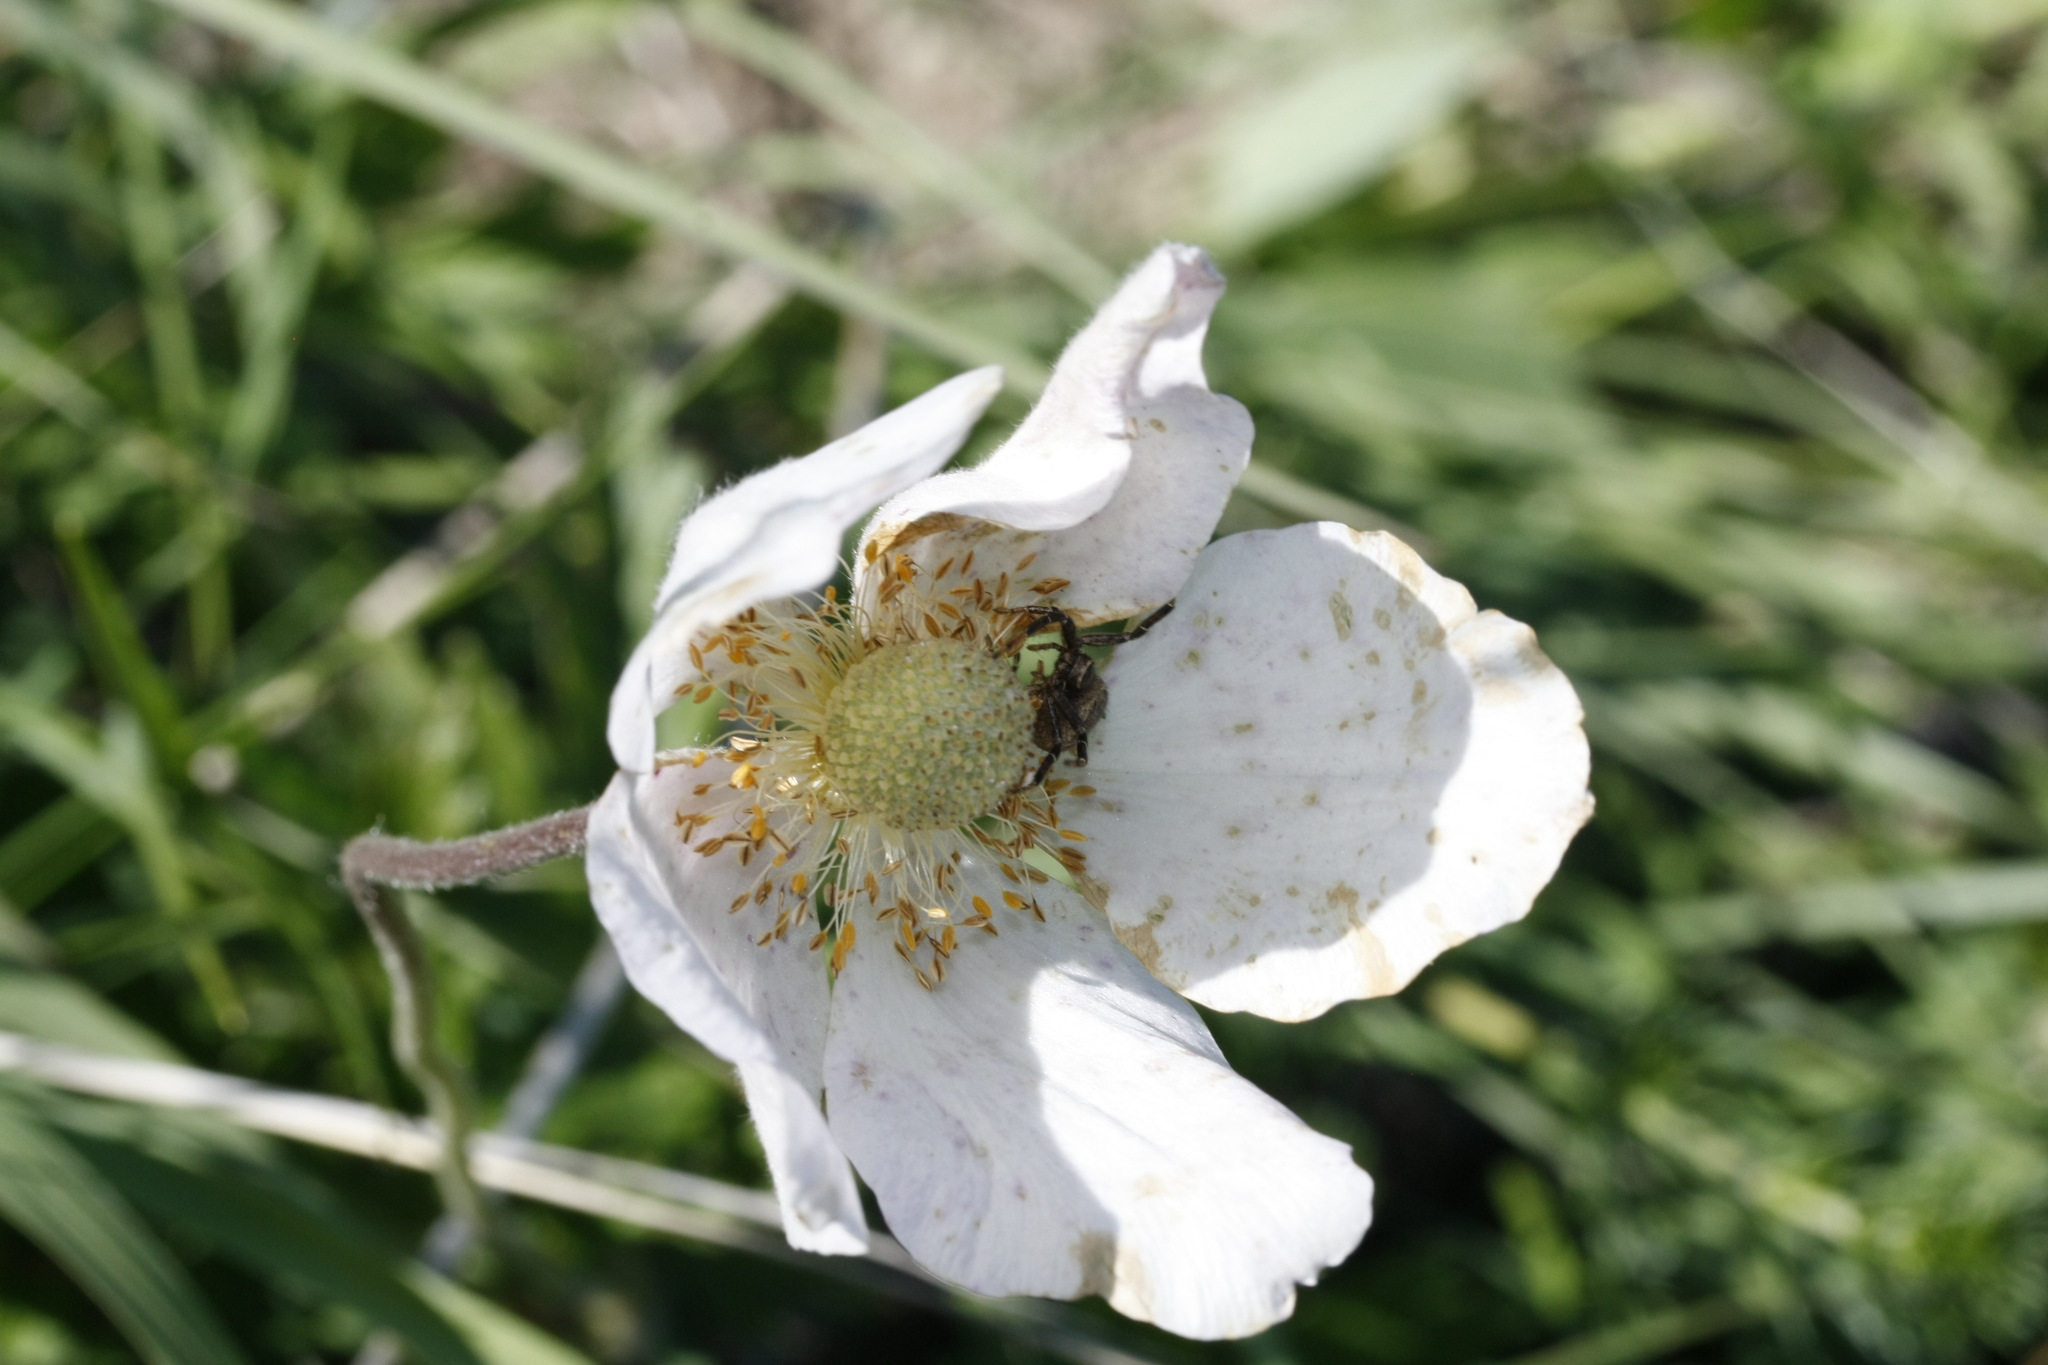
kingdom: Plantae
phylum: Tracheophyta
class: Magnoliopsida
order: Ranunculales
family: Ranunculaceae
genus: Anemone
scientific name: Anemone sylvestris
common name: Snowdrop anemone
